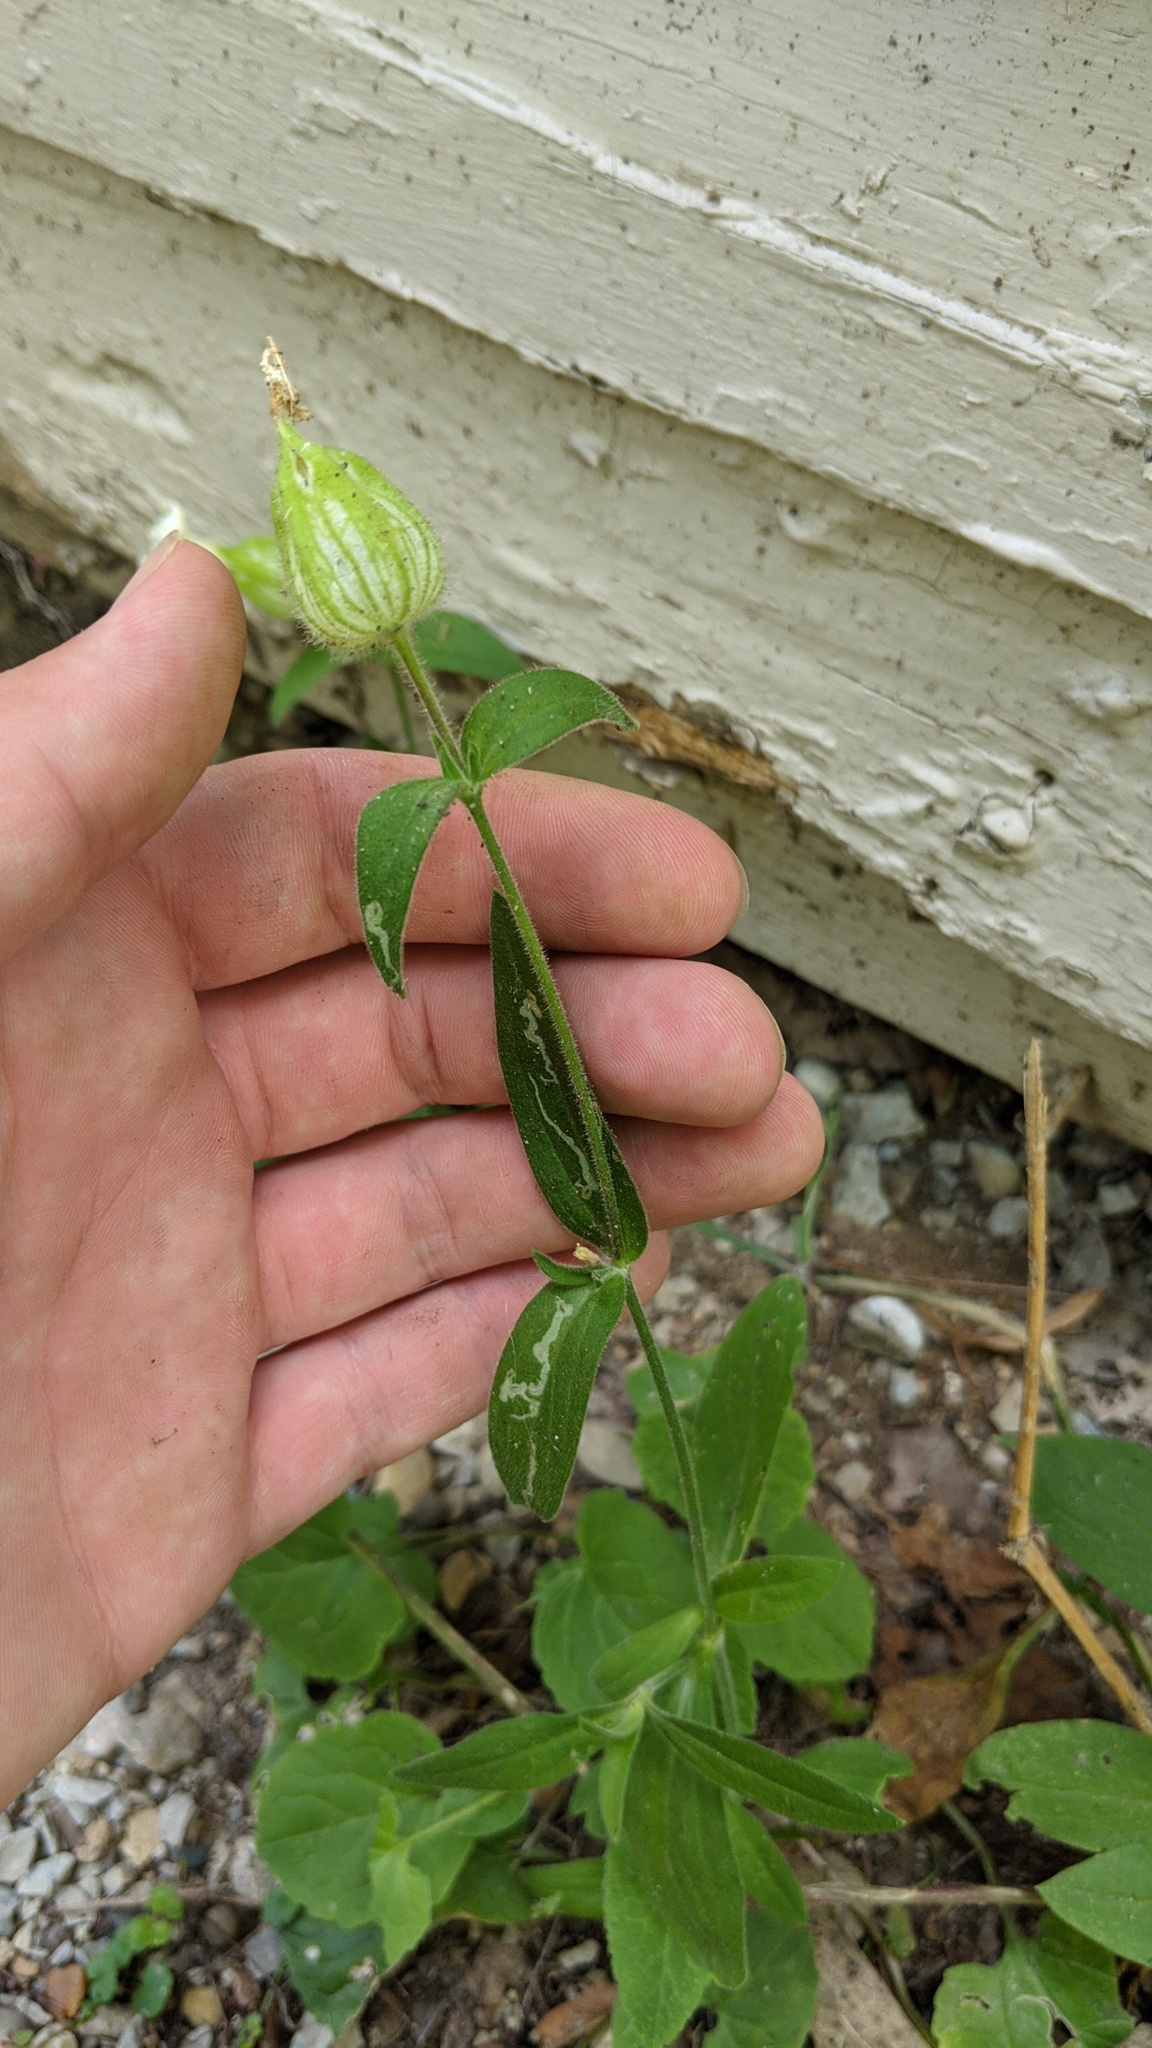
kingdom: Plantae
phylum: Tracheophyta
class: Magnoliopsida
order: Caryophyllales
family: Caryophyllaceae
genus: Silene
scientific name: Silene latifolia
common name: White campion
